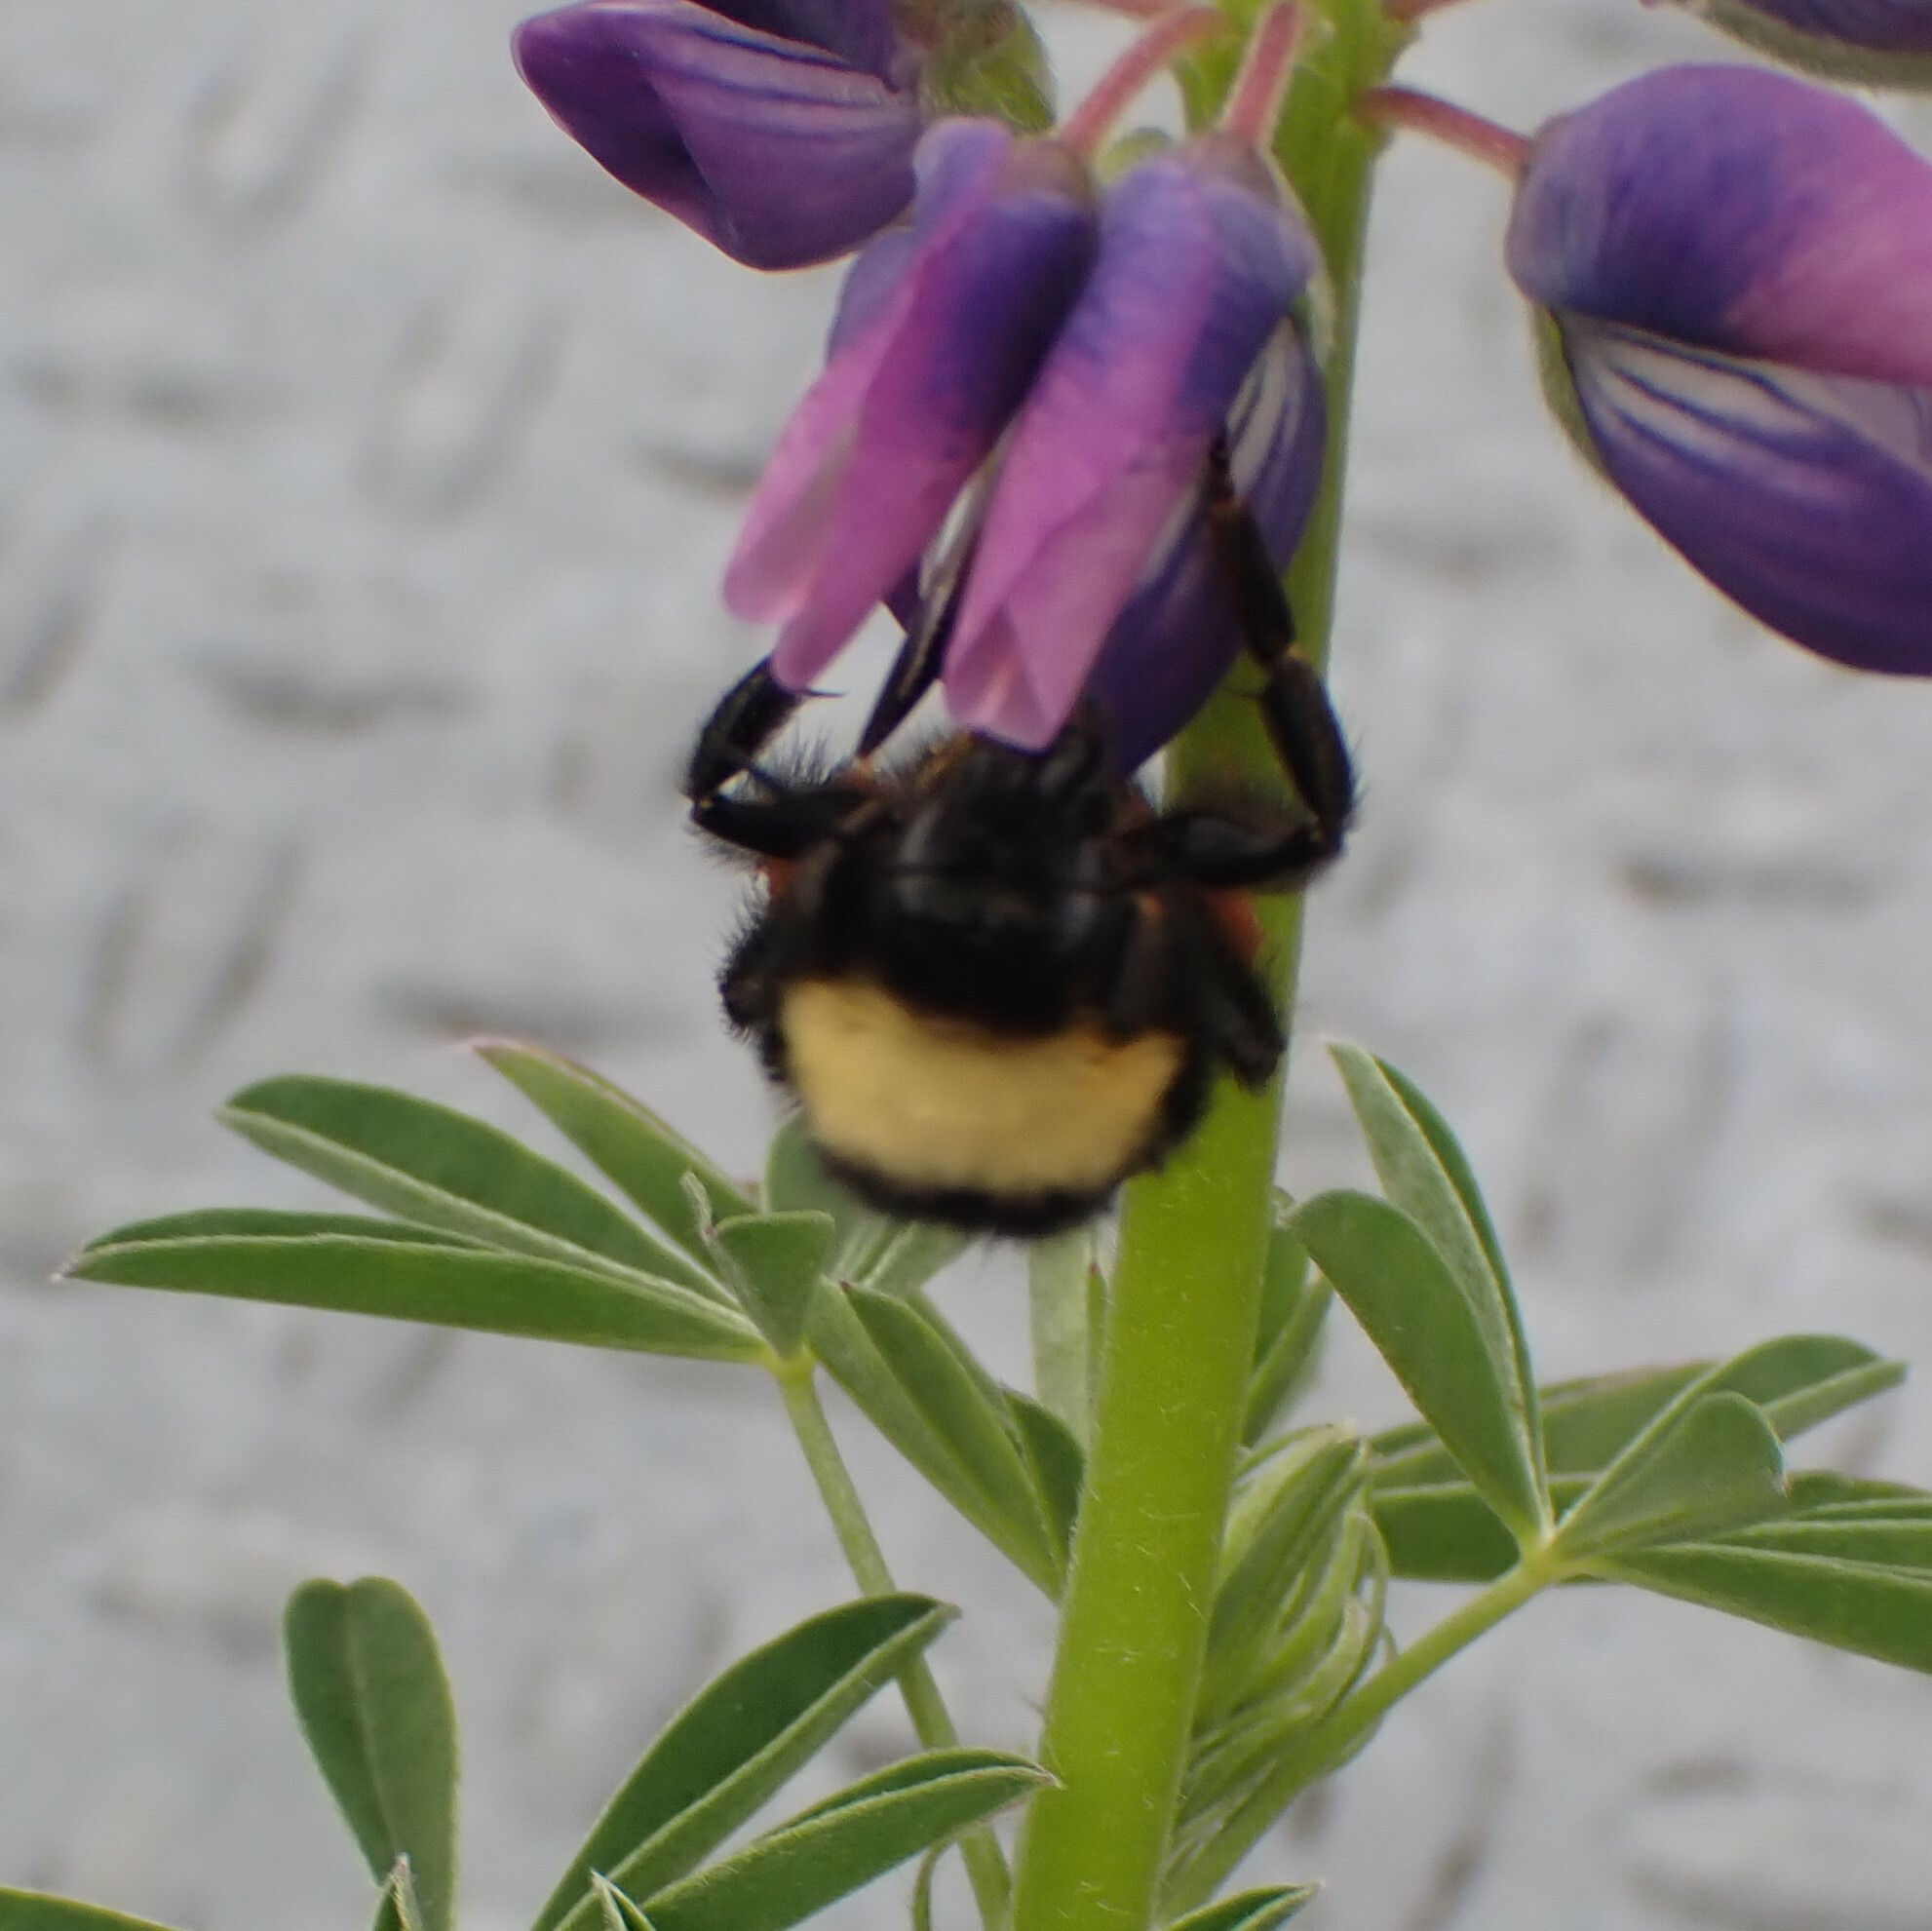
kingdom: Animalia
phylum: Arthropoda
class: Insecta
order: Hymenoptera
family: Apidae
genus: Bombus
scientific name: Bombus californicus
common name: California bumble bee
